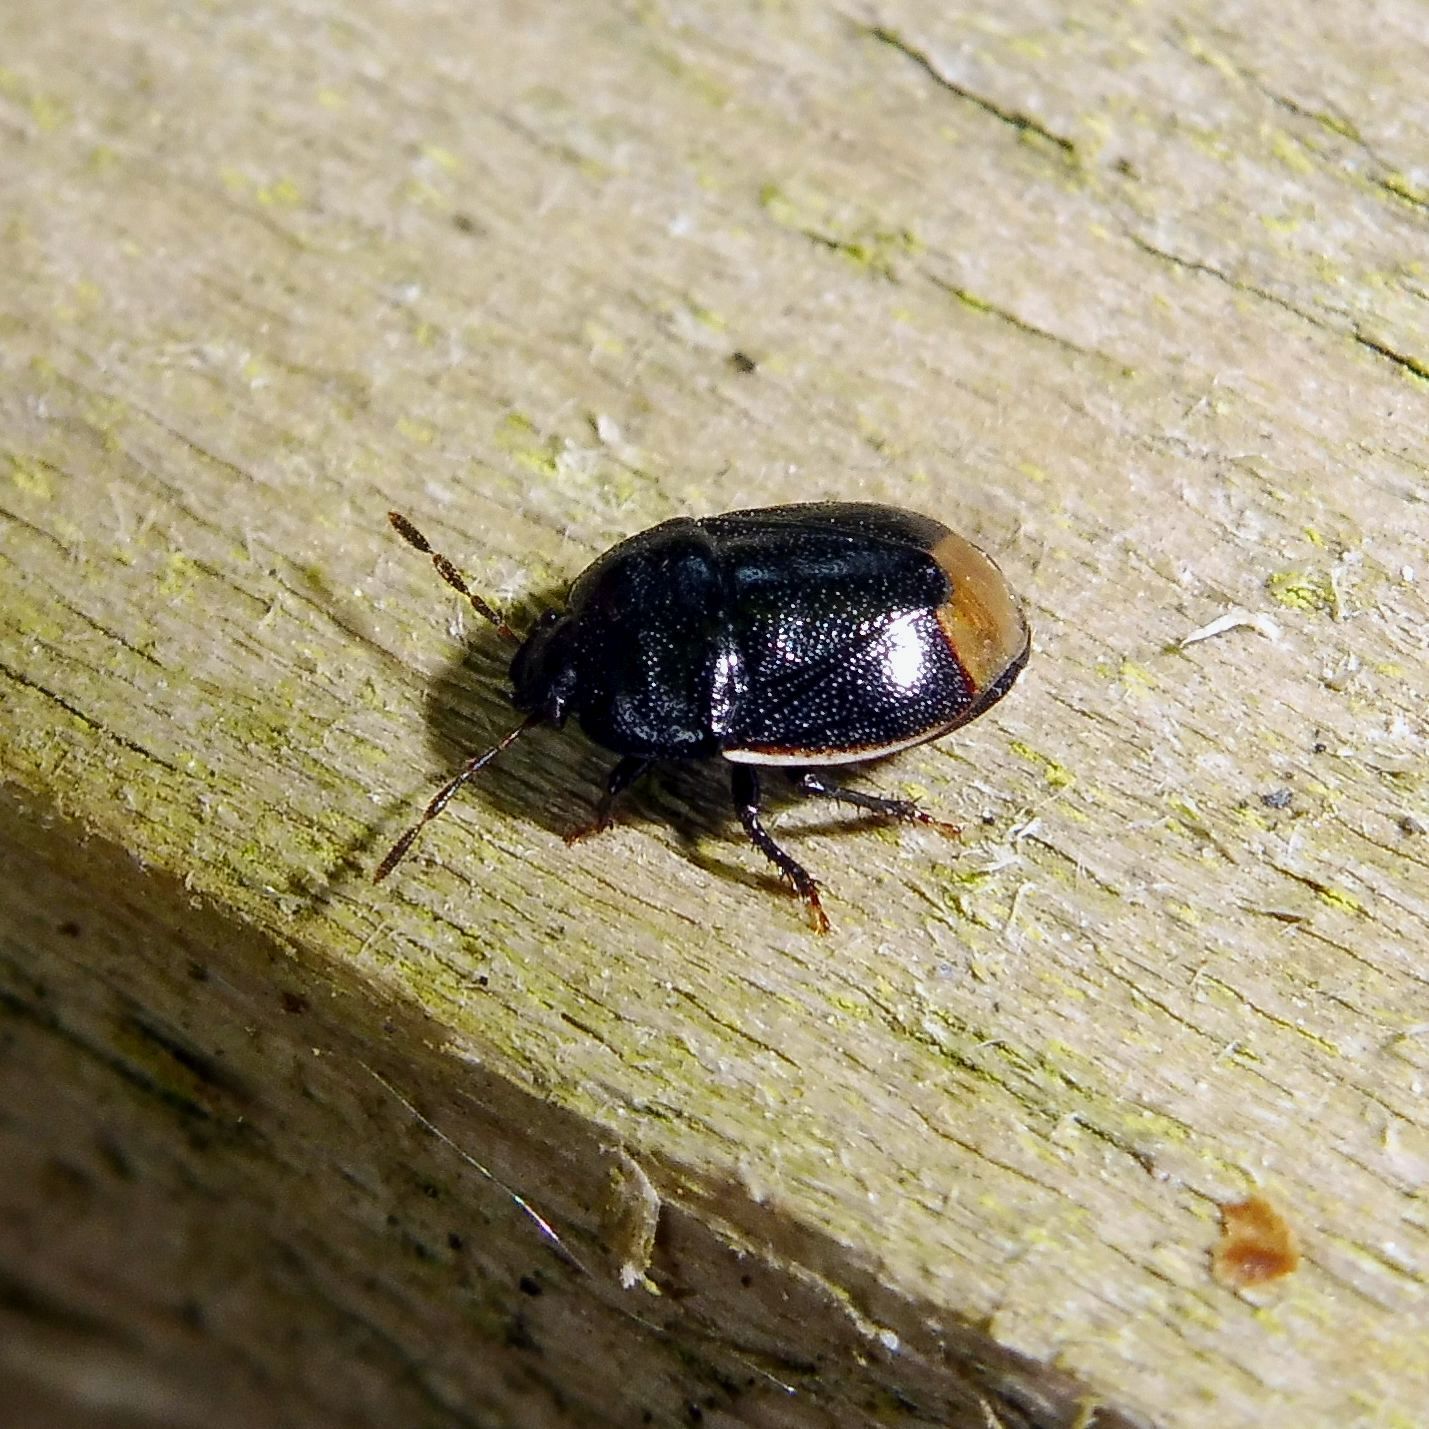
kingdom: Animalia
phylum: Arthropoda
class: Insecta
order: Hemiptera
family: Cydnidae
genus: Legnotus
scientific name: Legnotus limbosus
